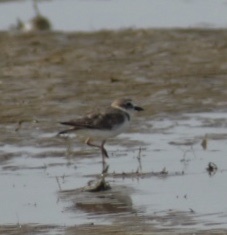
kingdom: Animalia
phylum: Chordata
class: Aves
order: Charadriiformes
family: Charadriidae
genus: Anarhynchus
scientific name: Anarhynchus
